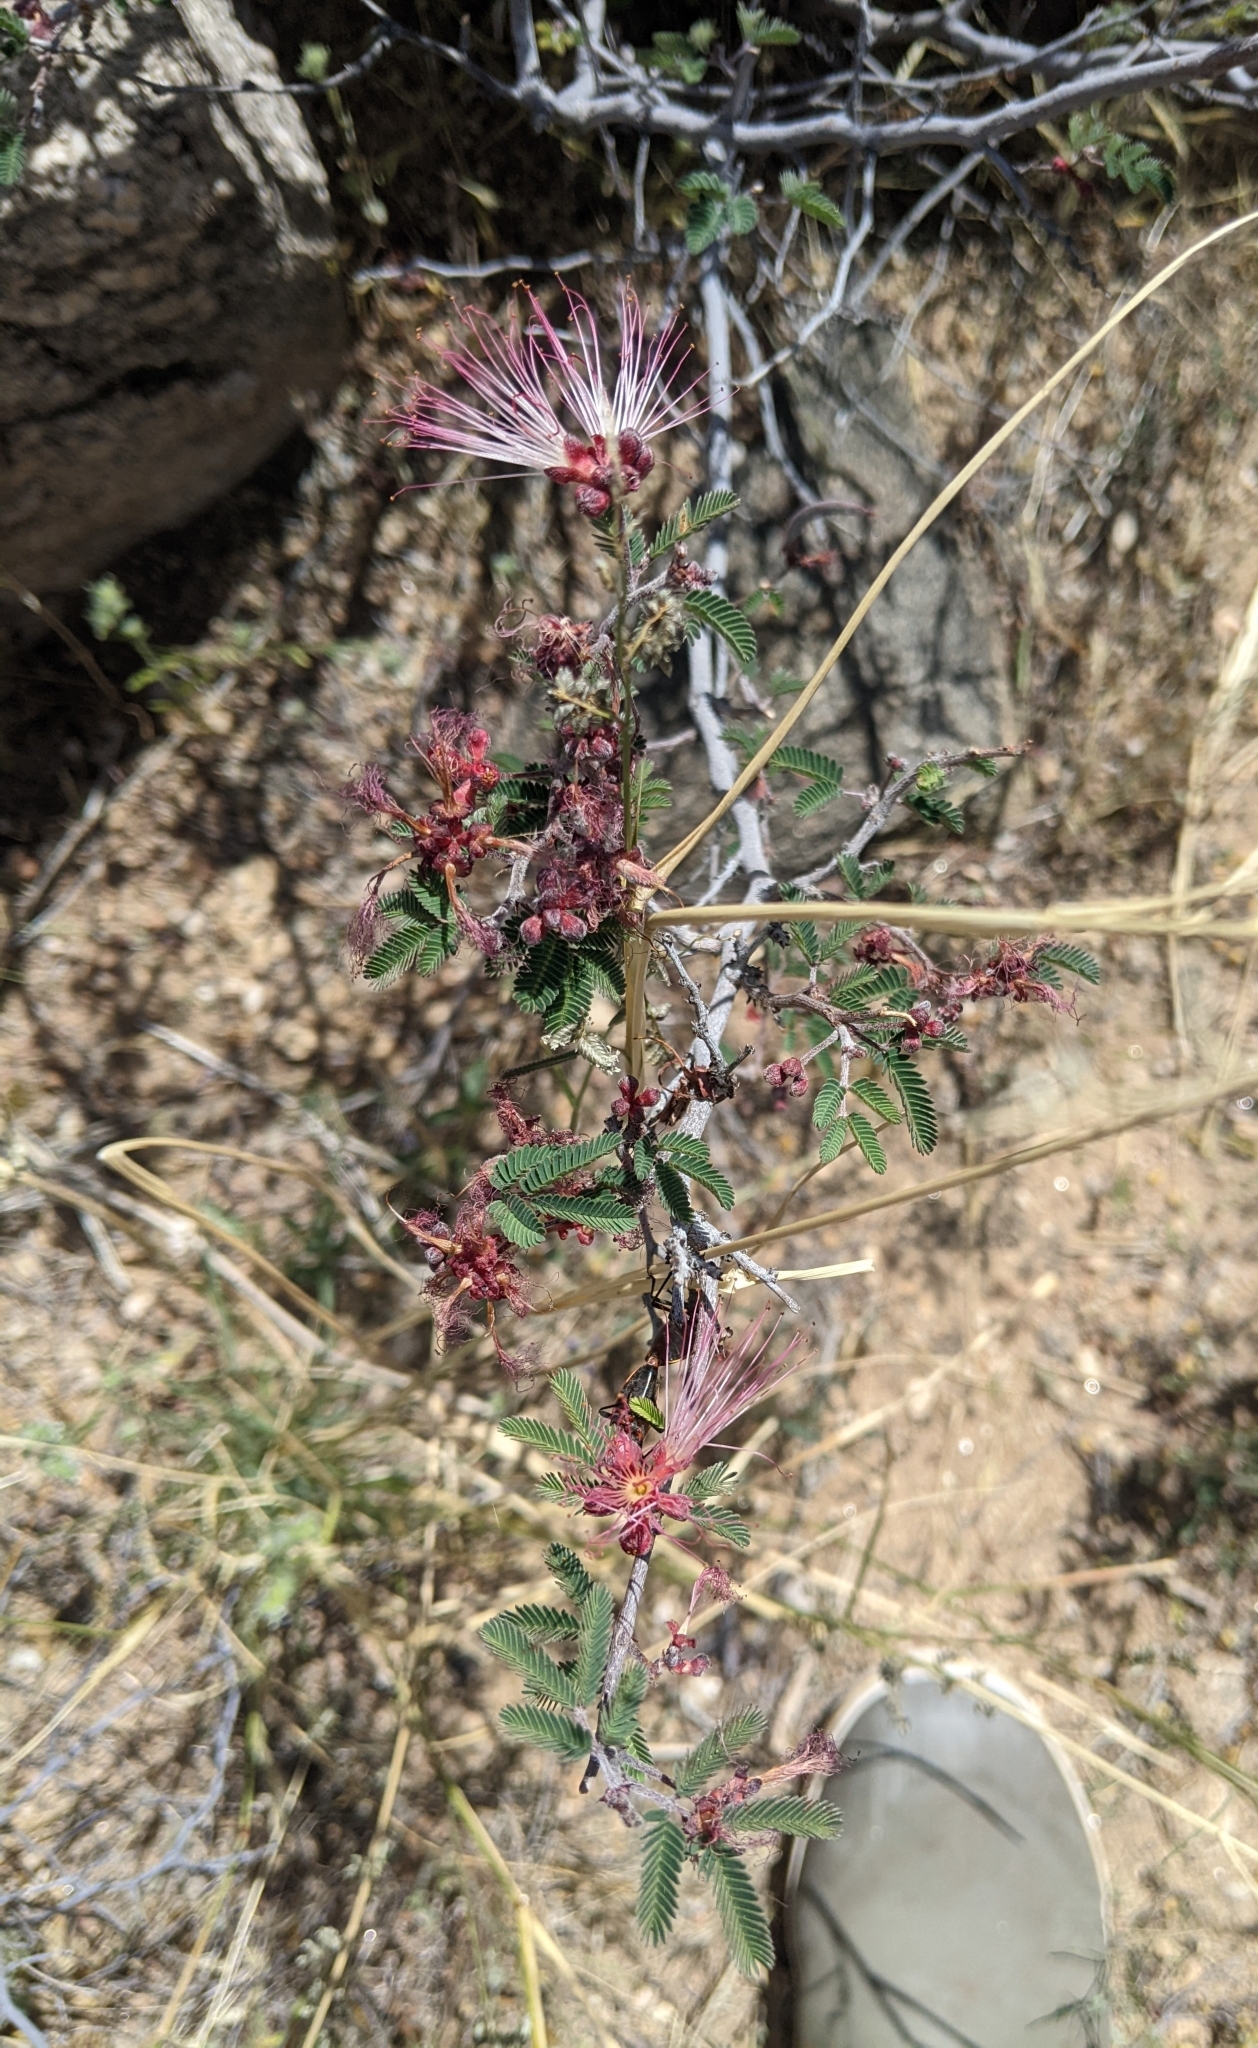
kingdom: Plantae
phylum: Tracheophyta
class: Magnoliopsida
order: Fabales
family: Fabaceae
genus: Calliandra
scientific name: Calliandra eriophylla
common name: Fairy-duster
